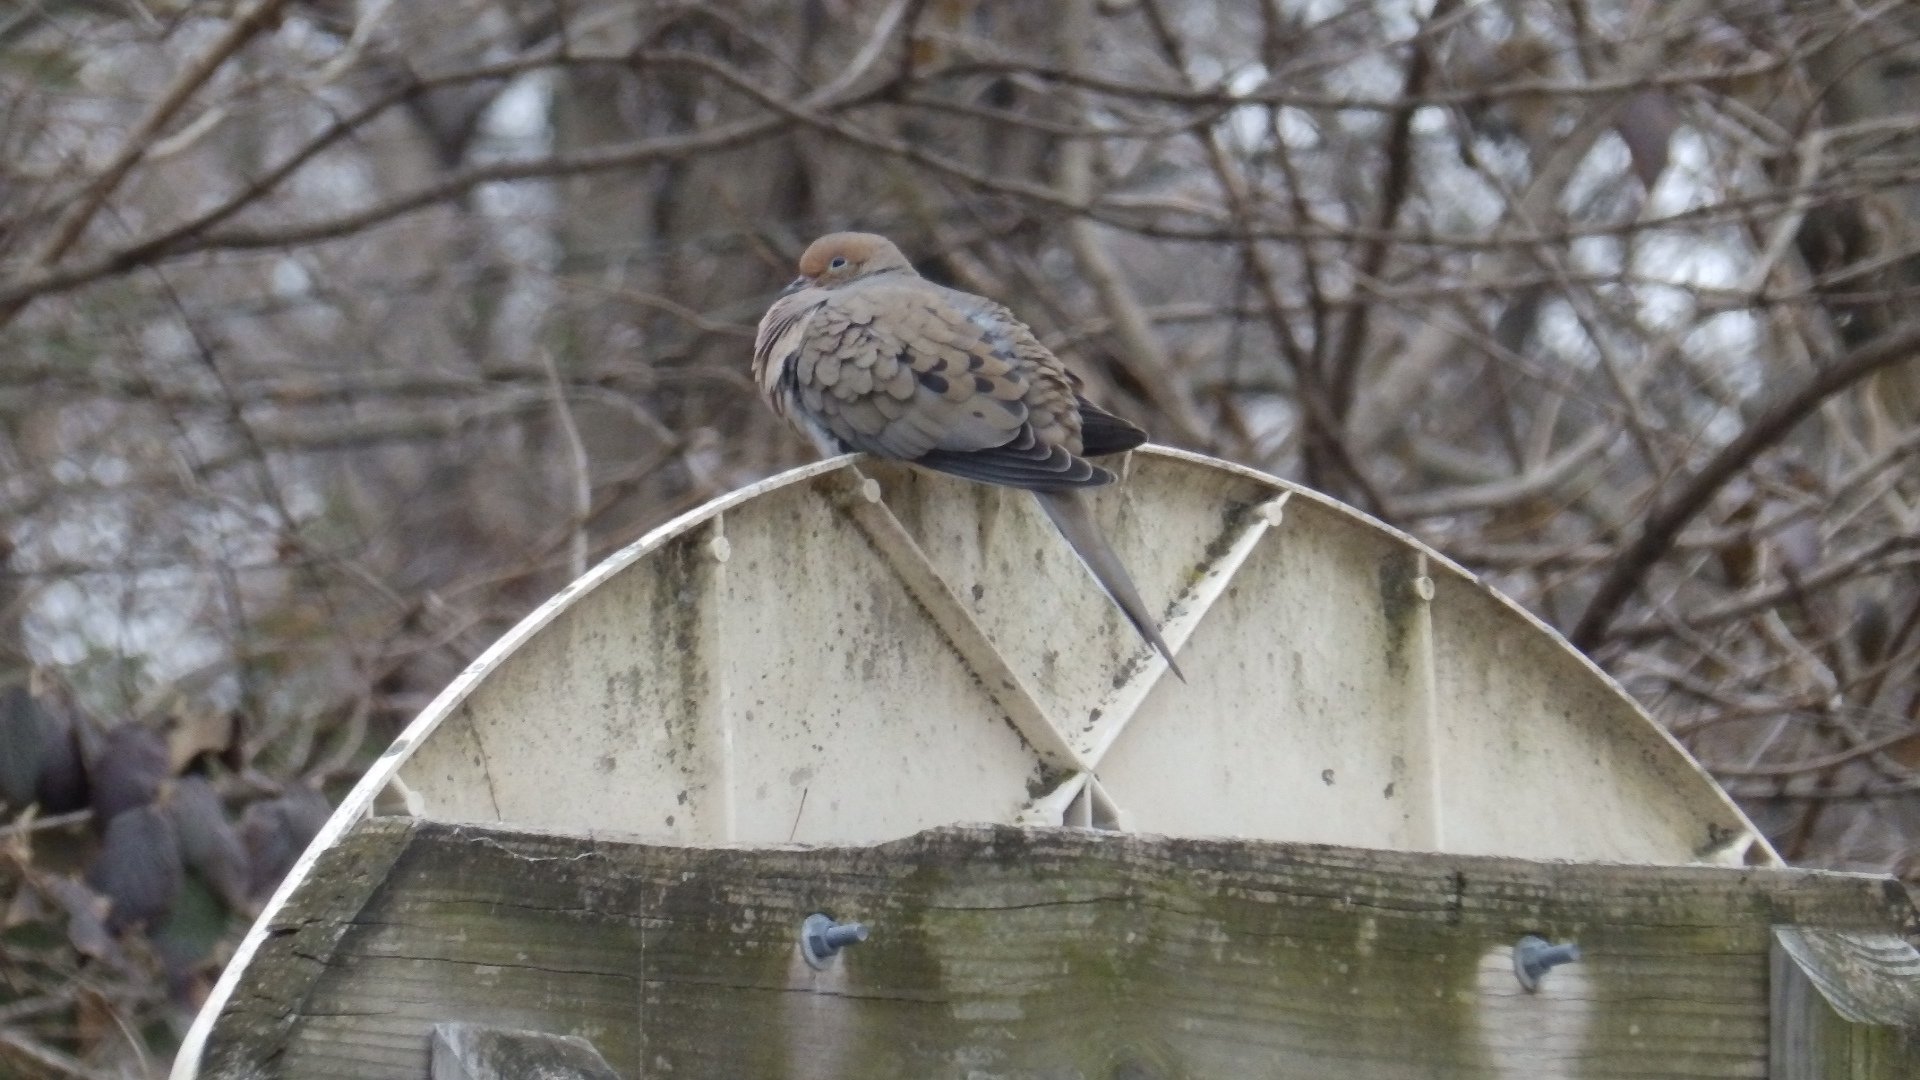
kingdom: Animalia
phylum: Chordata
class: Aves
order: Columbiformes
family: Columbidae
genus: Zenaida
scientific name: Zenaida macroura
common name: Mourning dove
